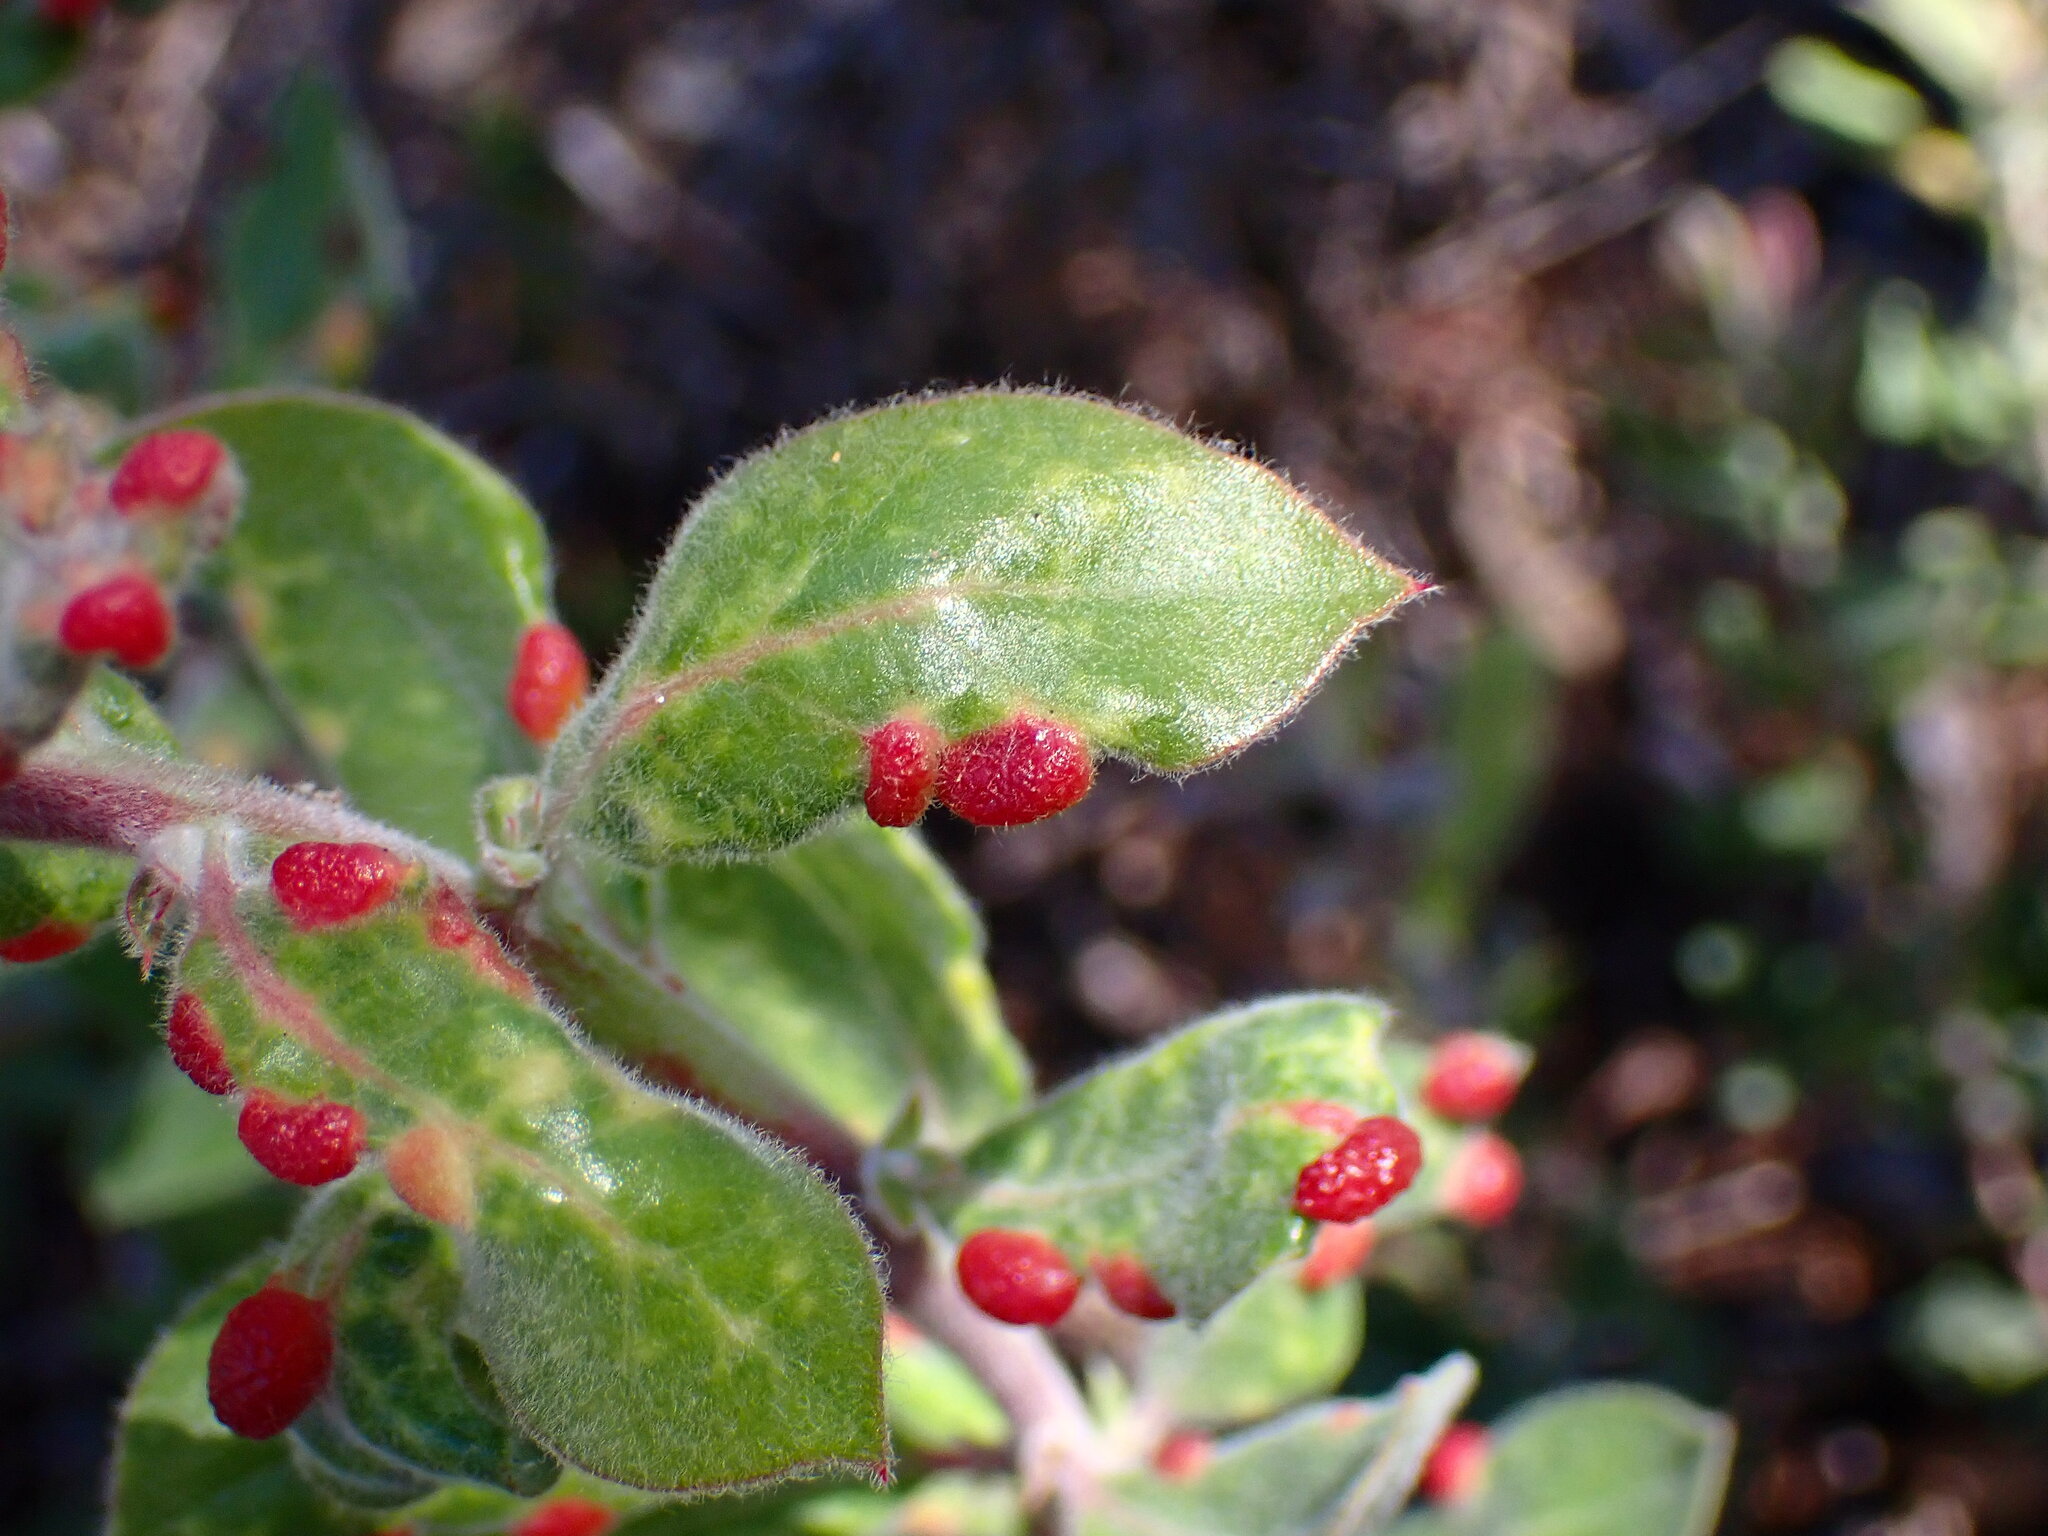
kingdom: Animalia
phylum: Arthropoda
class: Insecta
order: Hemiptera
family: Aphididae
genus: Tamalia
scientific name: Tamalia coweni
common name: Manzanita leafgall aphid
